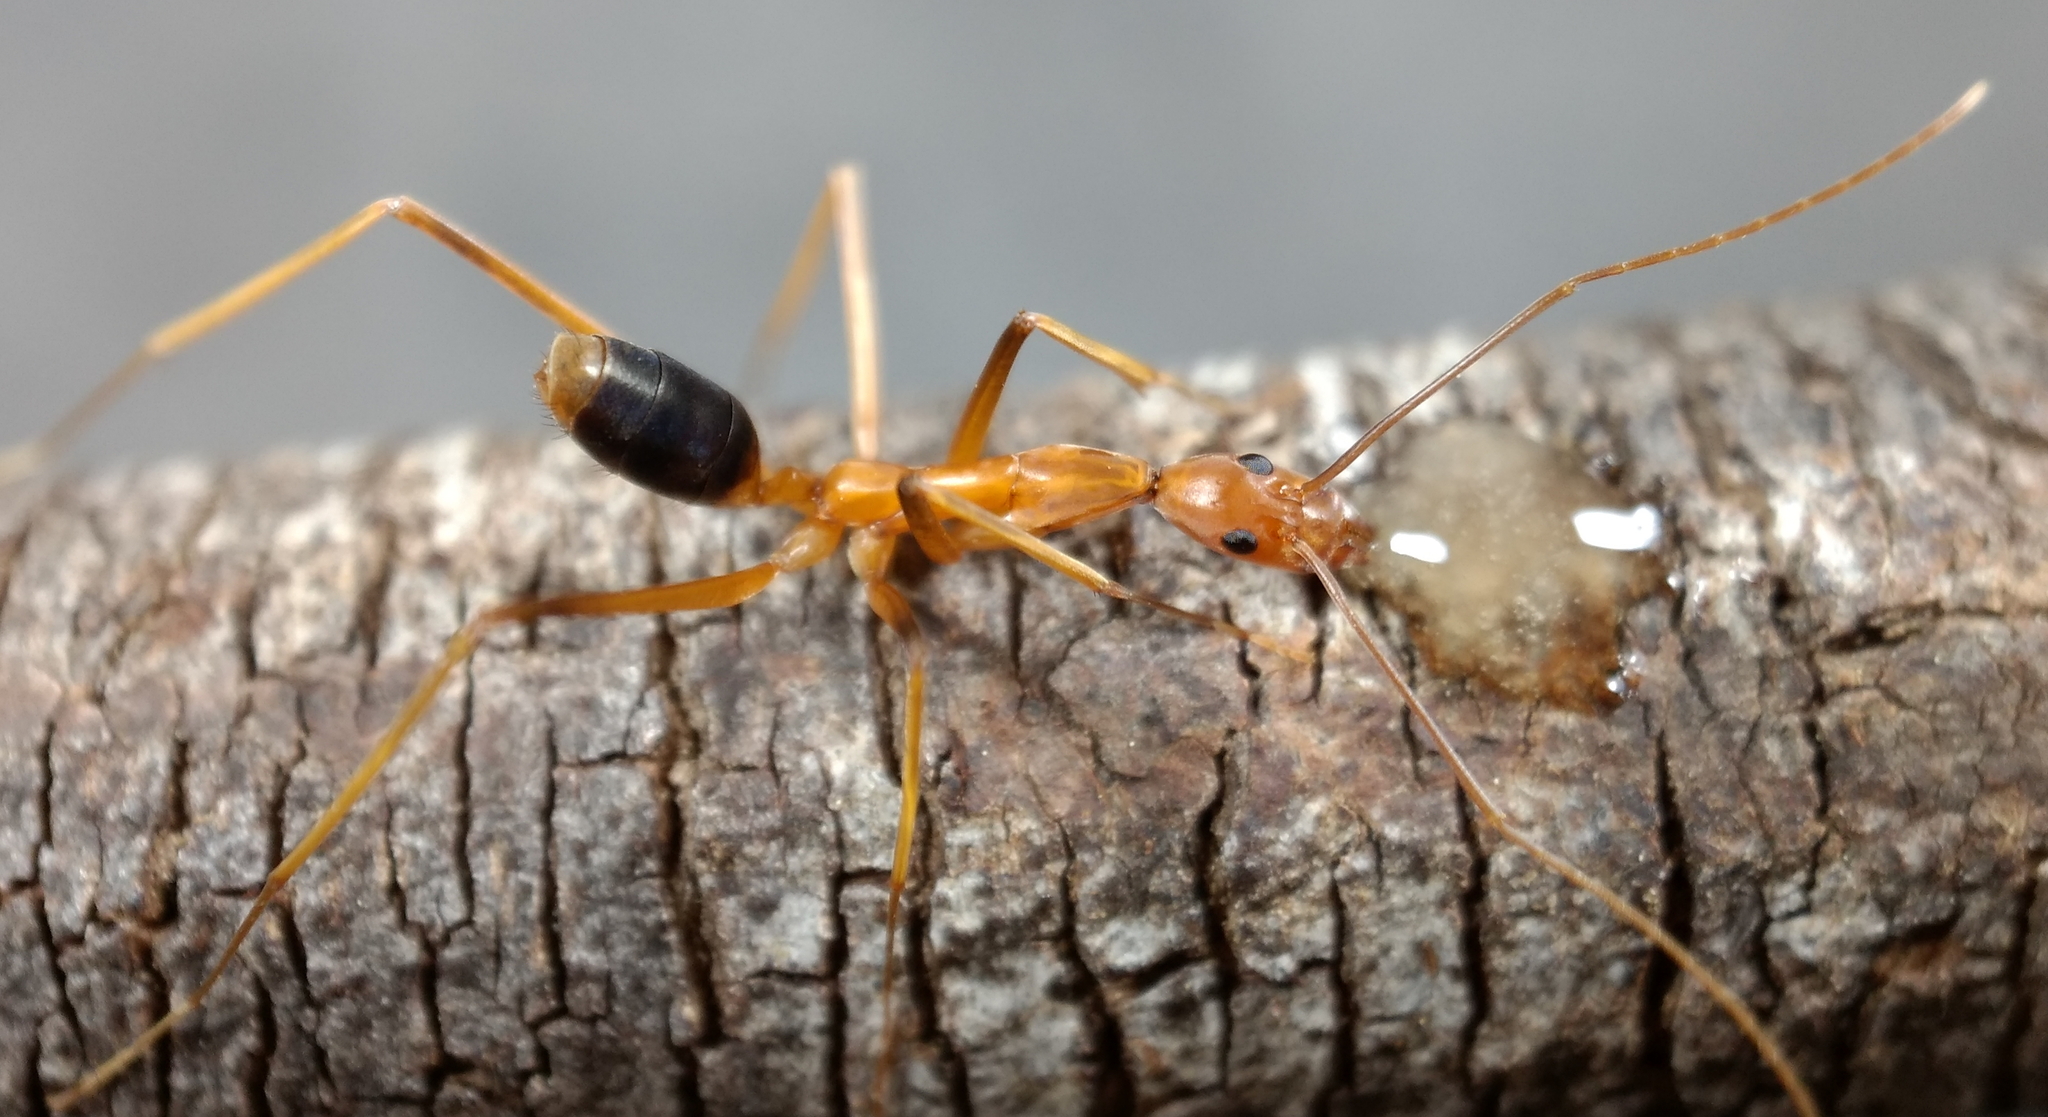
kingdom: Animalia
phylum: Arthropoda
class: Insecta
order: Hymenoptera
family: Formicidae
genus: Leptomyrmex
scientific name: Leptomyrmex rufipes
